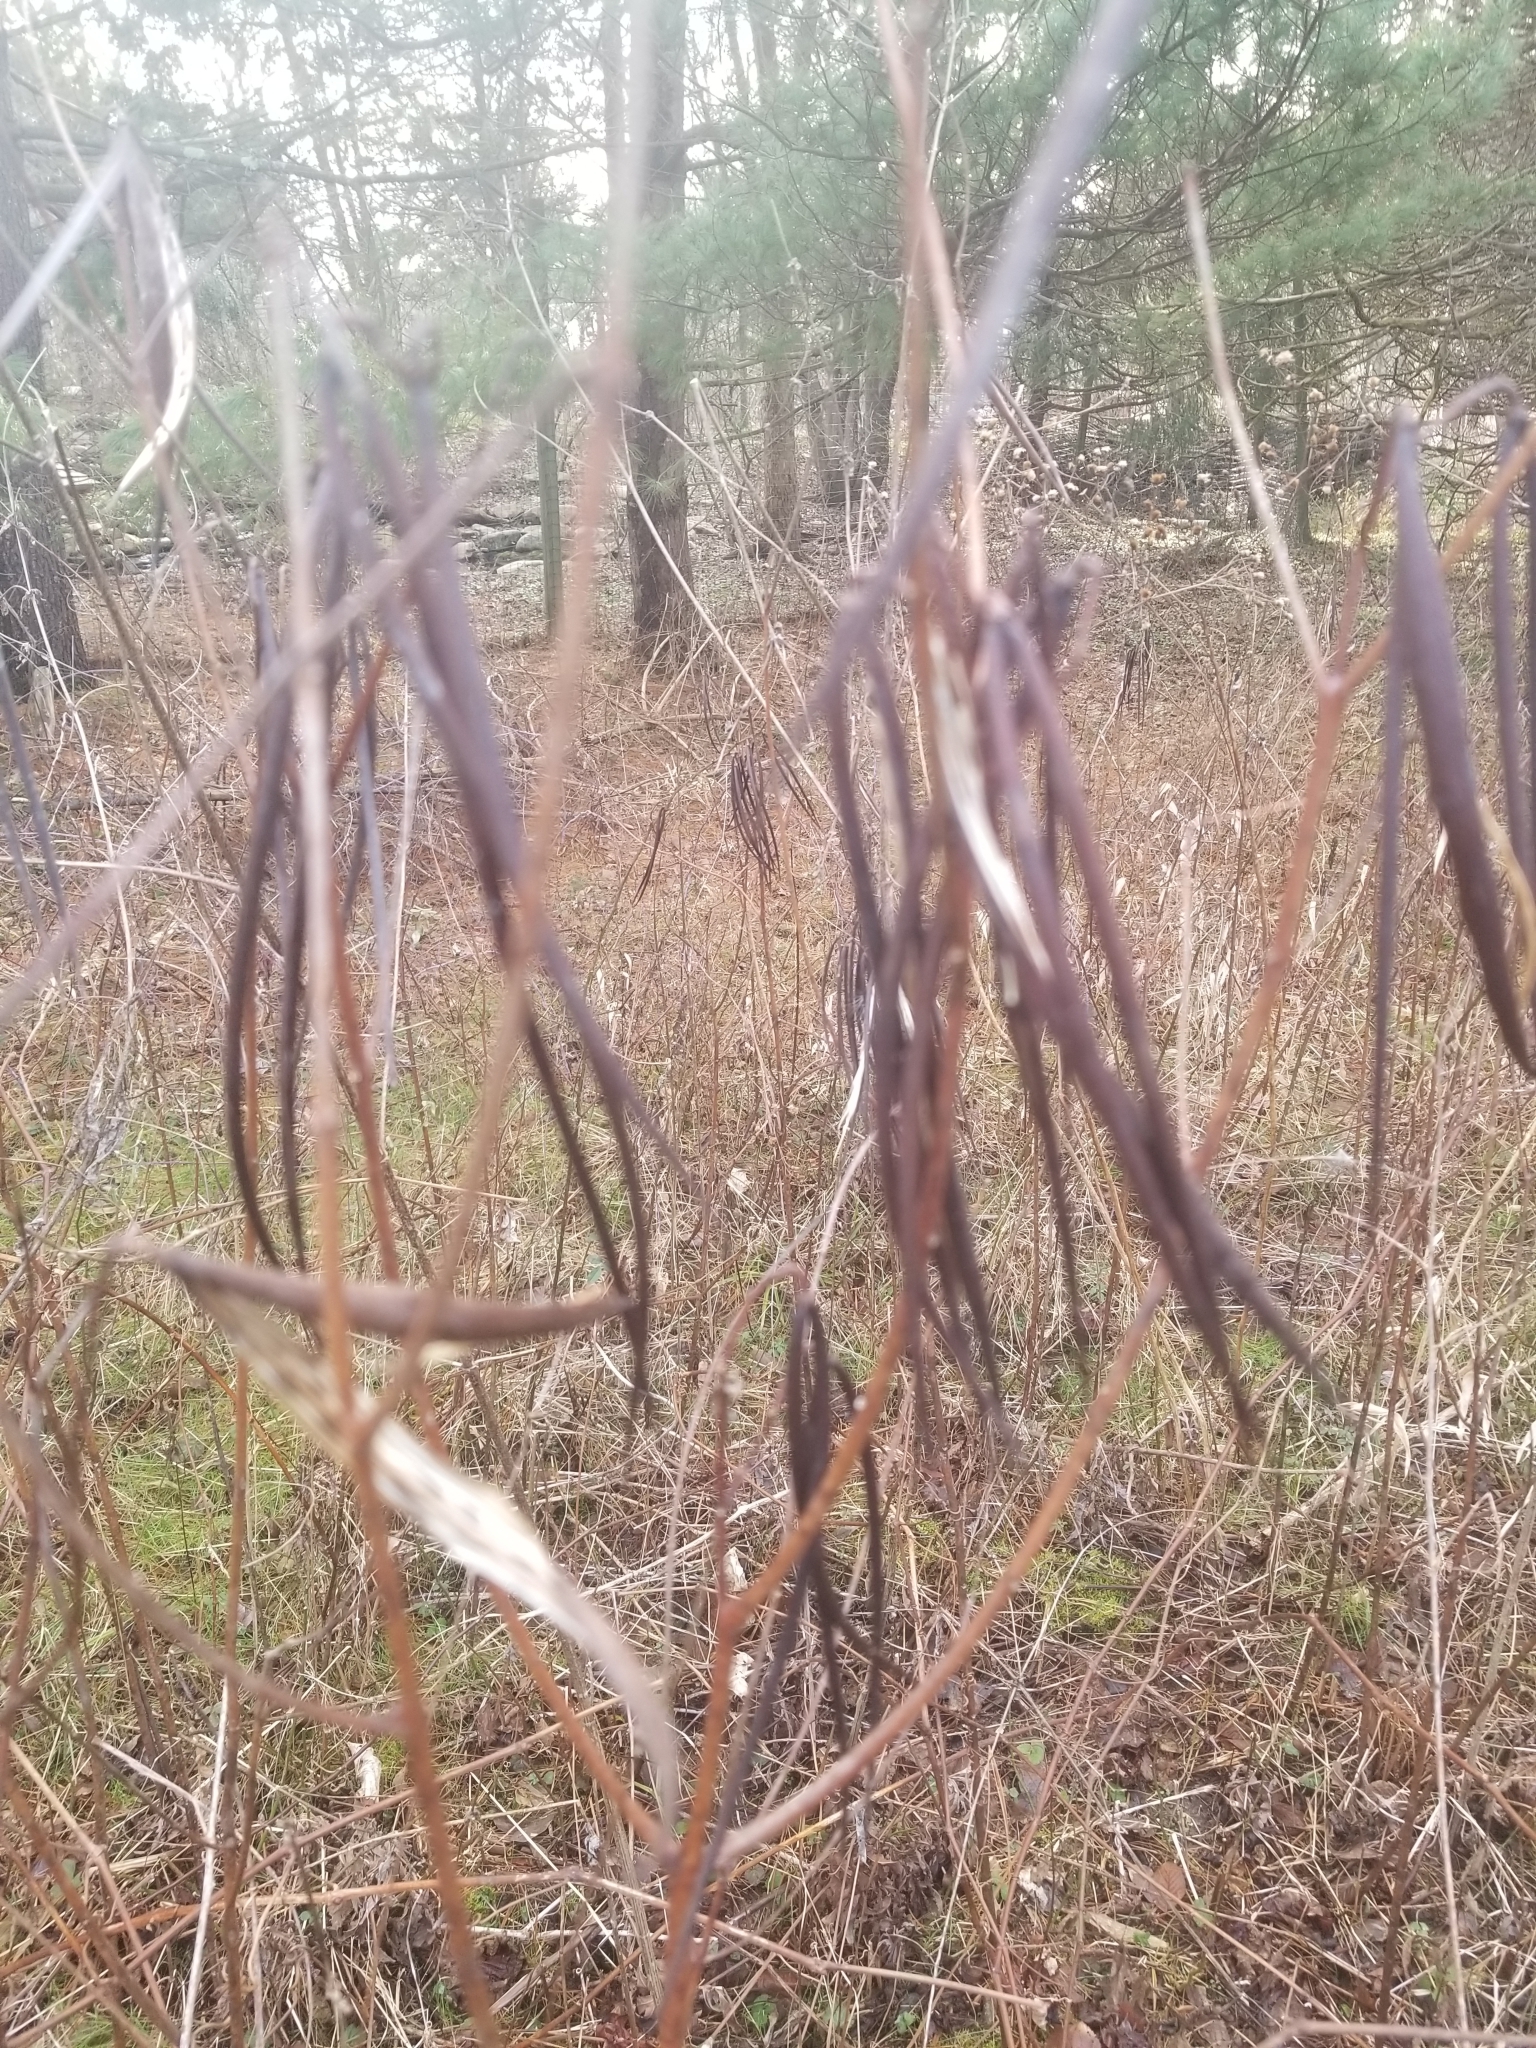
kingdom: Plantae
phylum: Tracheophyta
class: Magnoliopsida
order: Gentianales
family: Apocynaceae
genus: Apocynum
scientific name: Apocynum cannabinum
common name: Hemp dogbane
